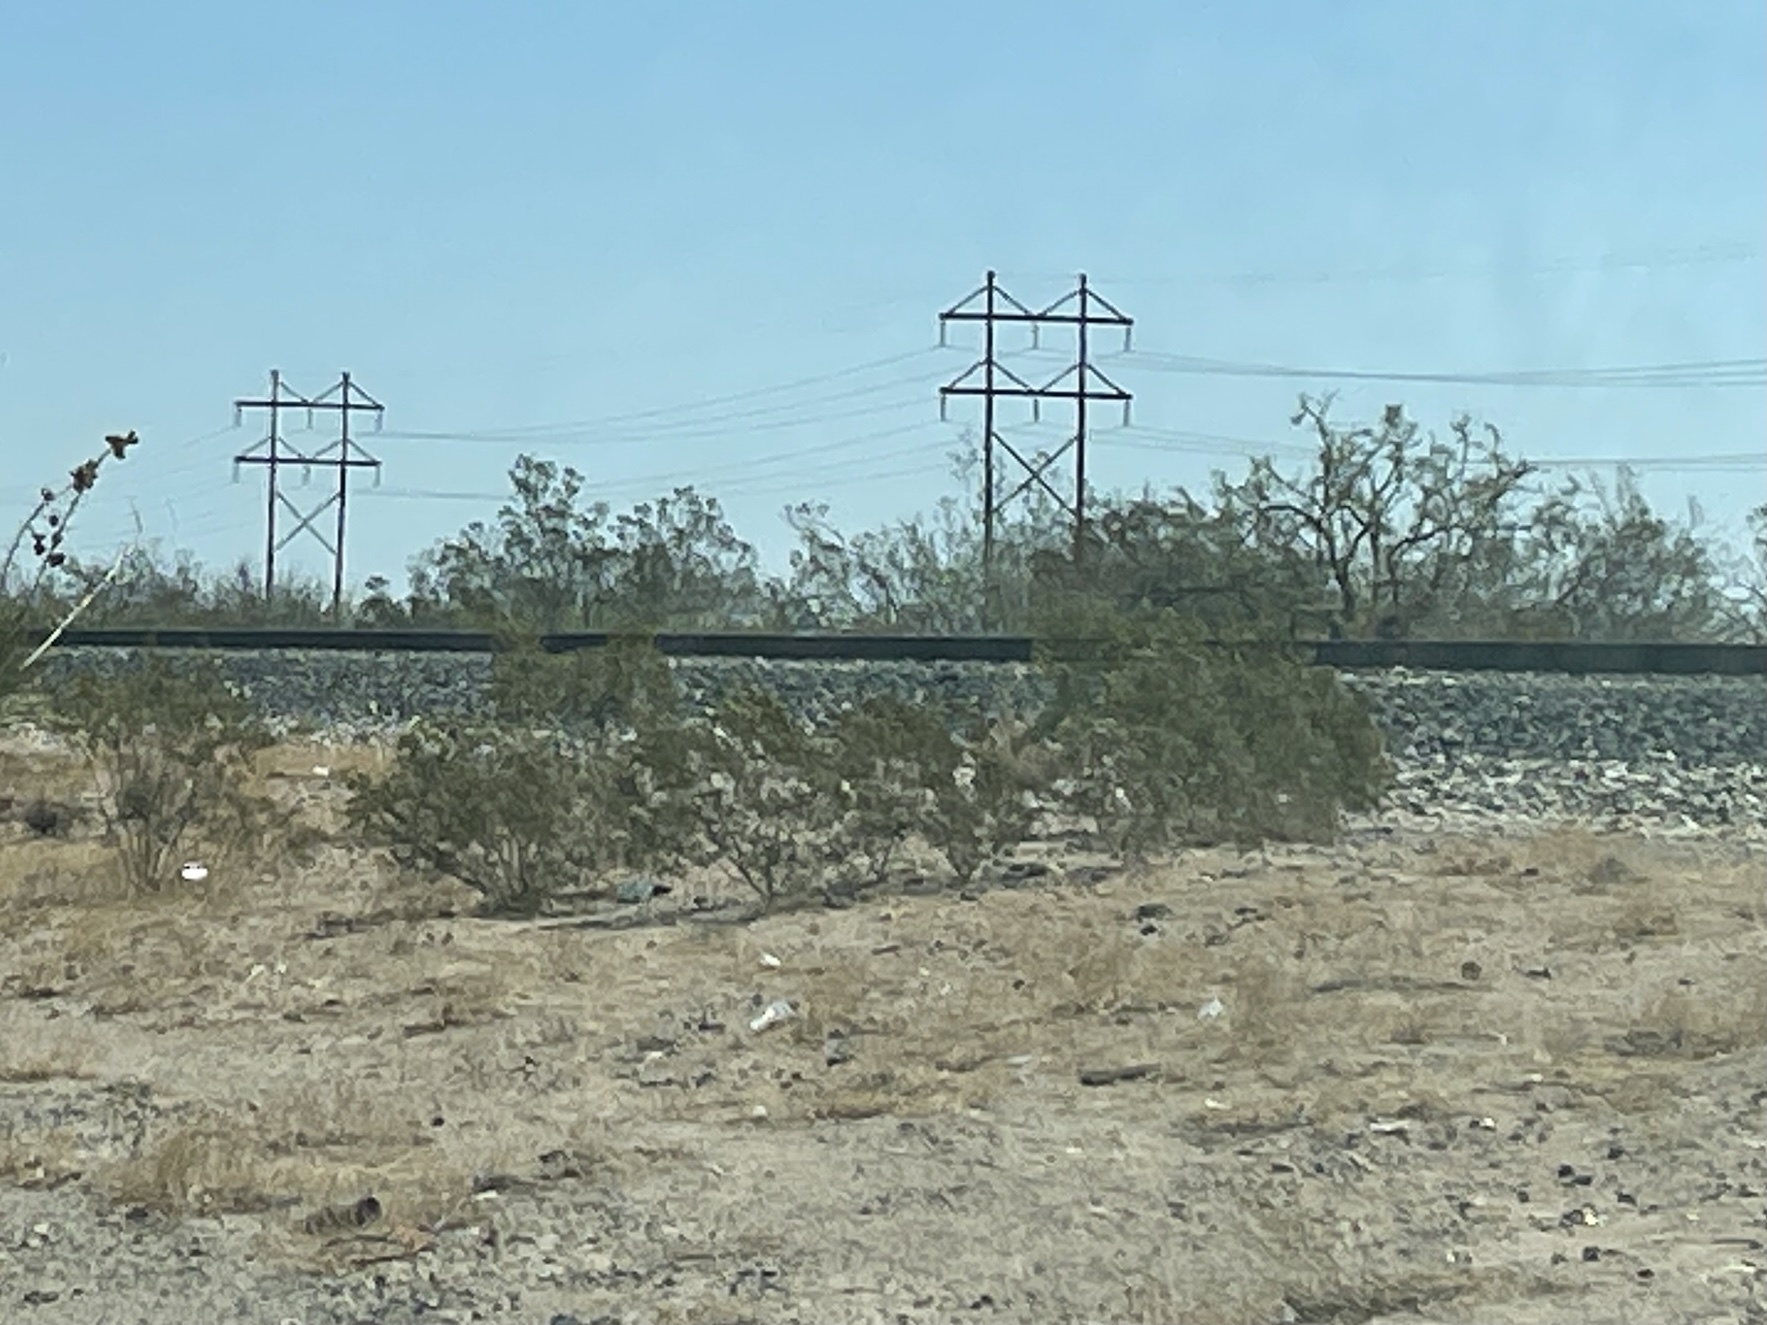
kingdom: Plantae
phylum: Tracheophyta
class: Magnoliopsida
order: Zygophyllales
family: Zygophyllaceae
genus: Larrea
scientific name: Larrea tridentata
